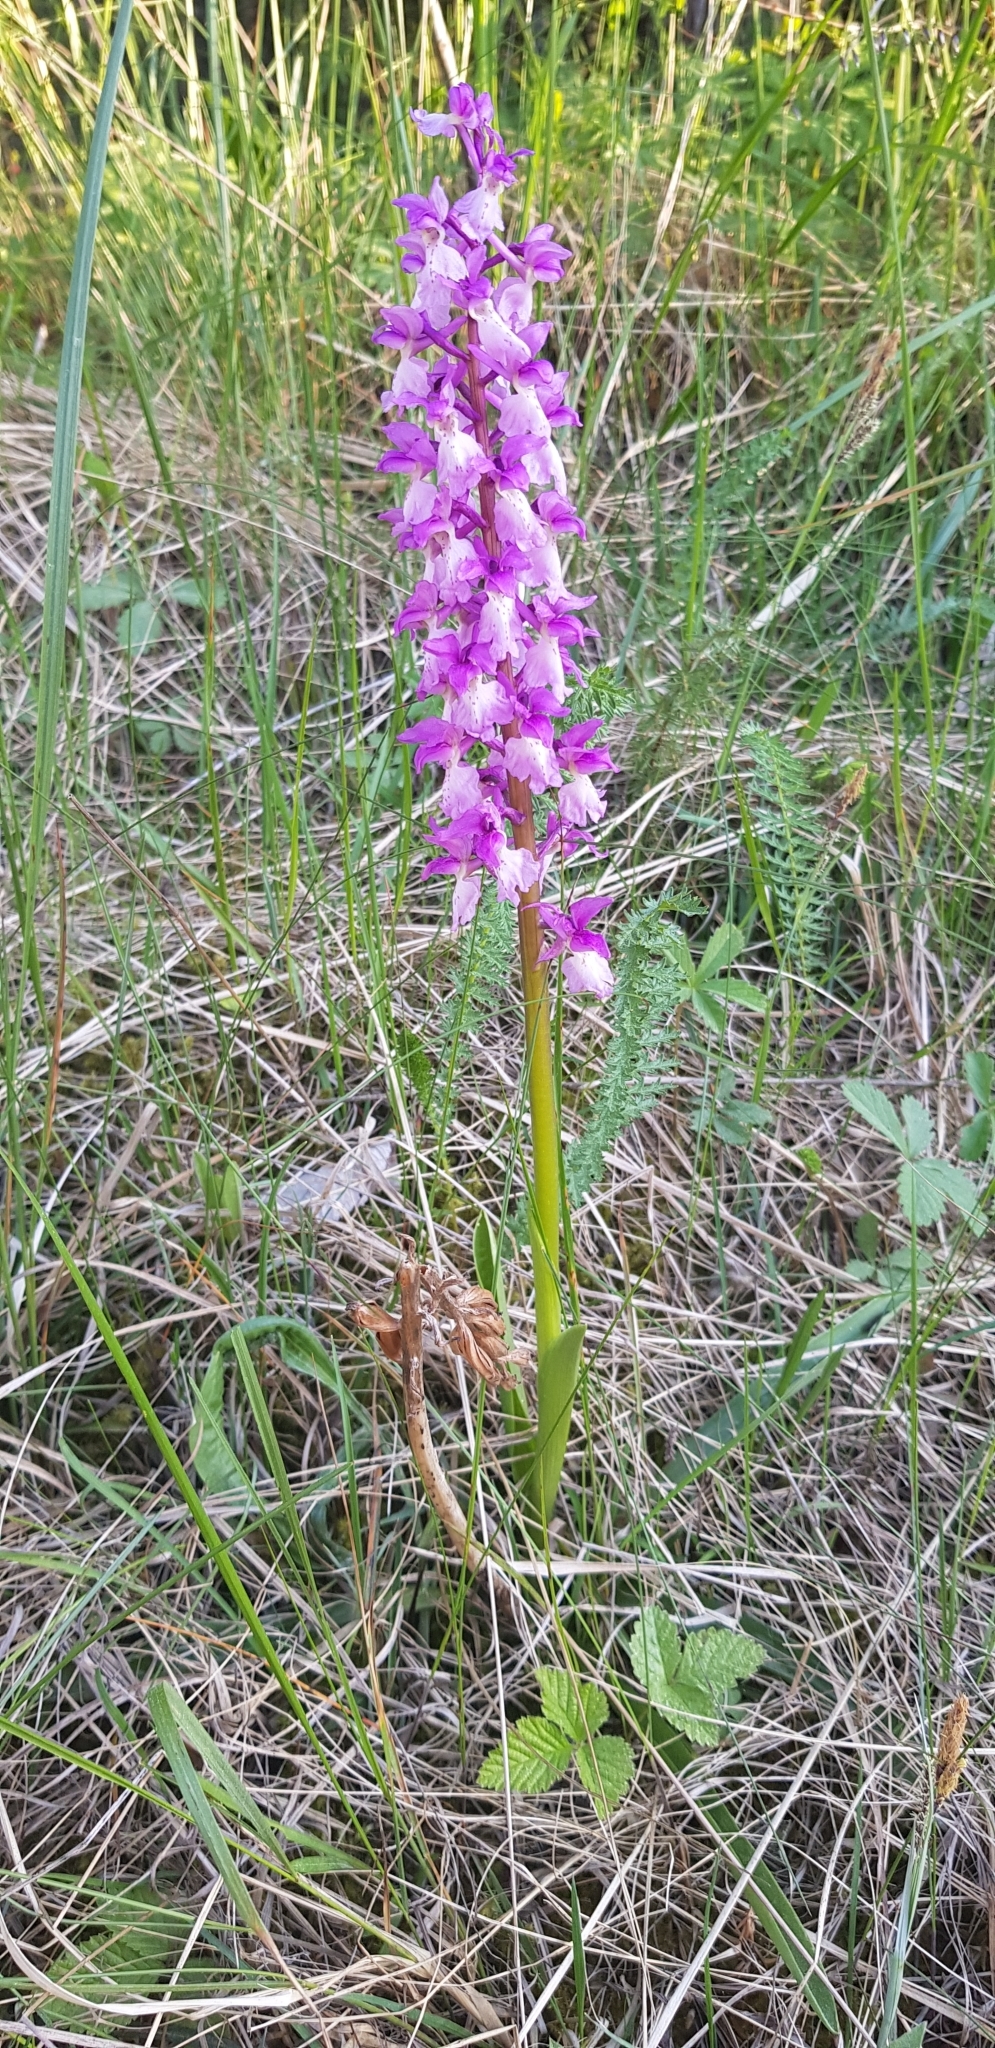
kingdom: Plantae
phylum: Tracheophyta
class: Liliopsida
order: Asparagales
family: Orchidaceae
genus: Orchis
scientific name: Orchis mascula
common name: Early-purple orchid
